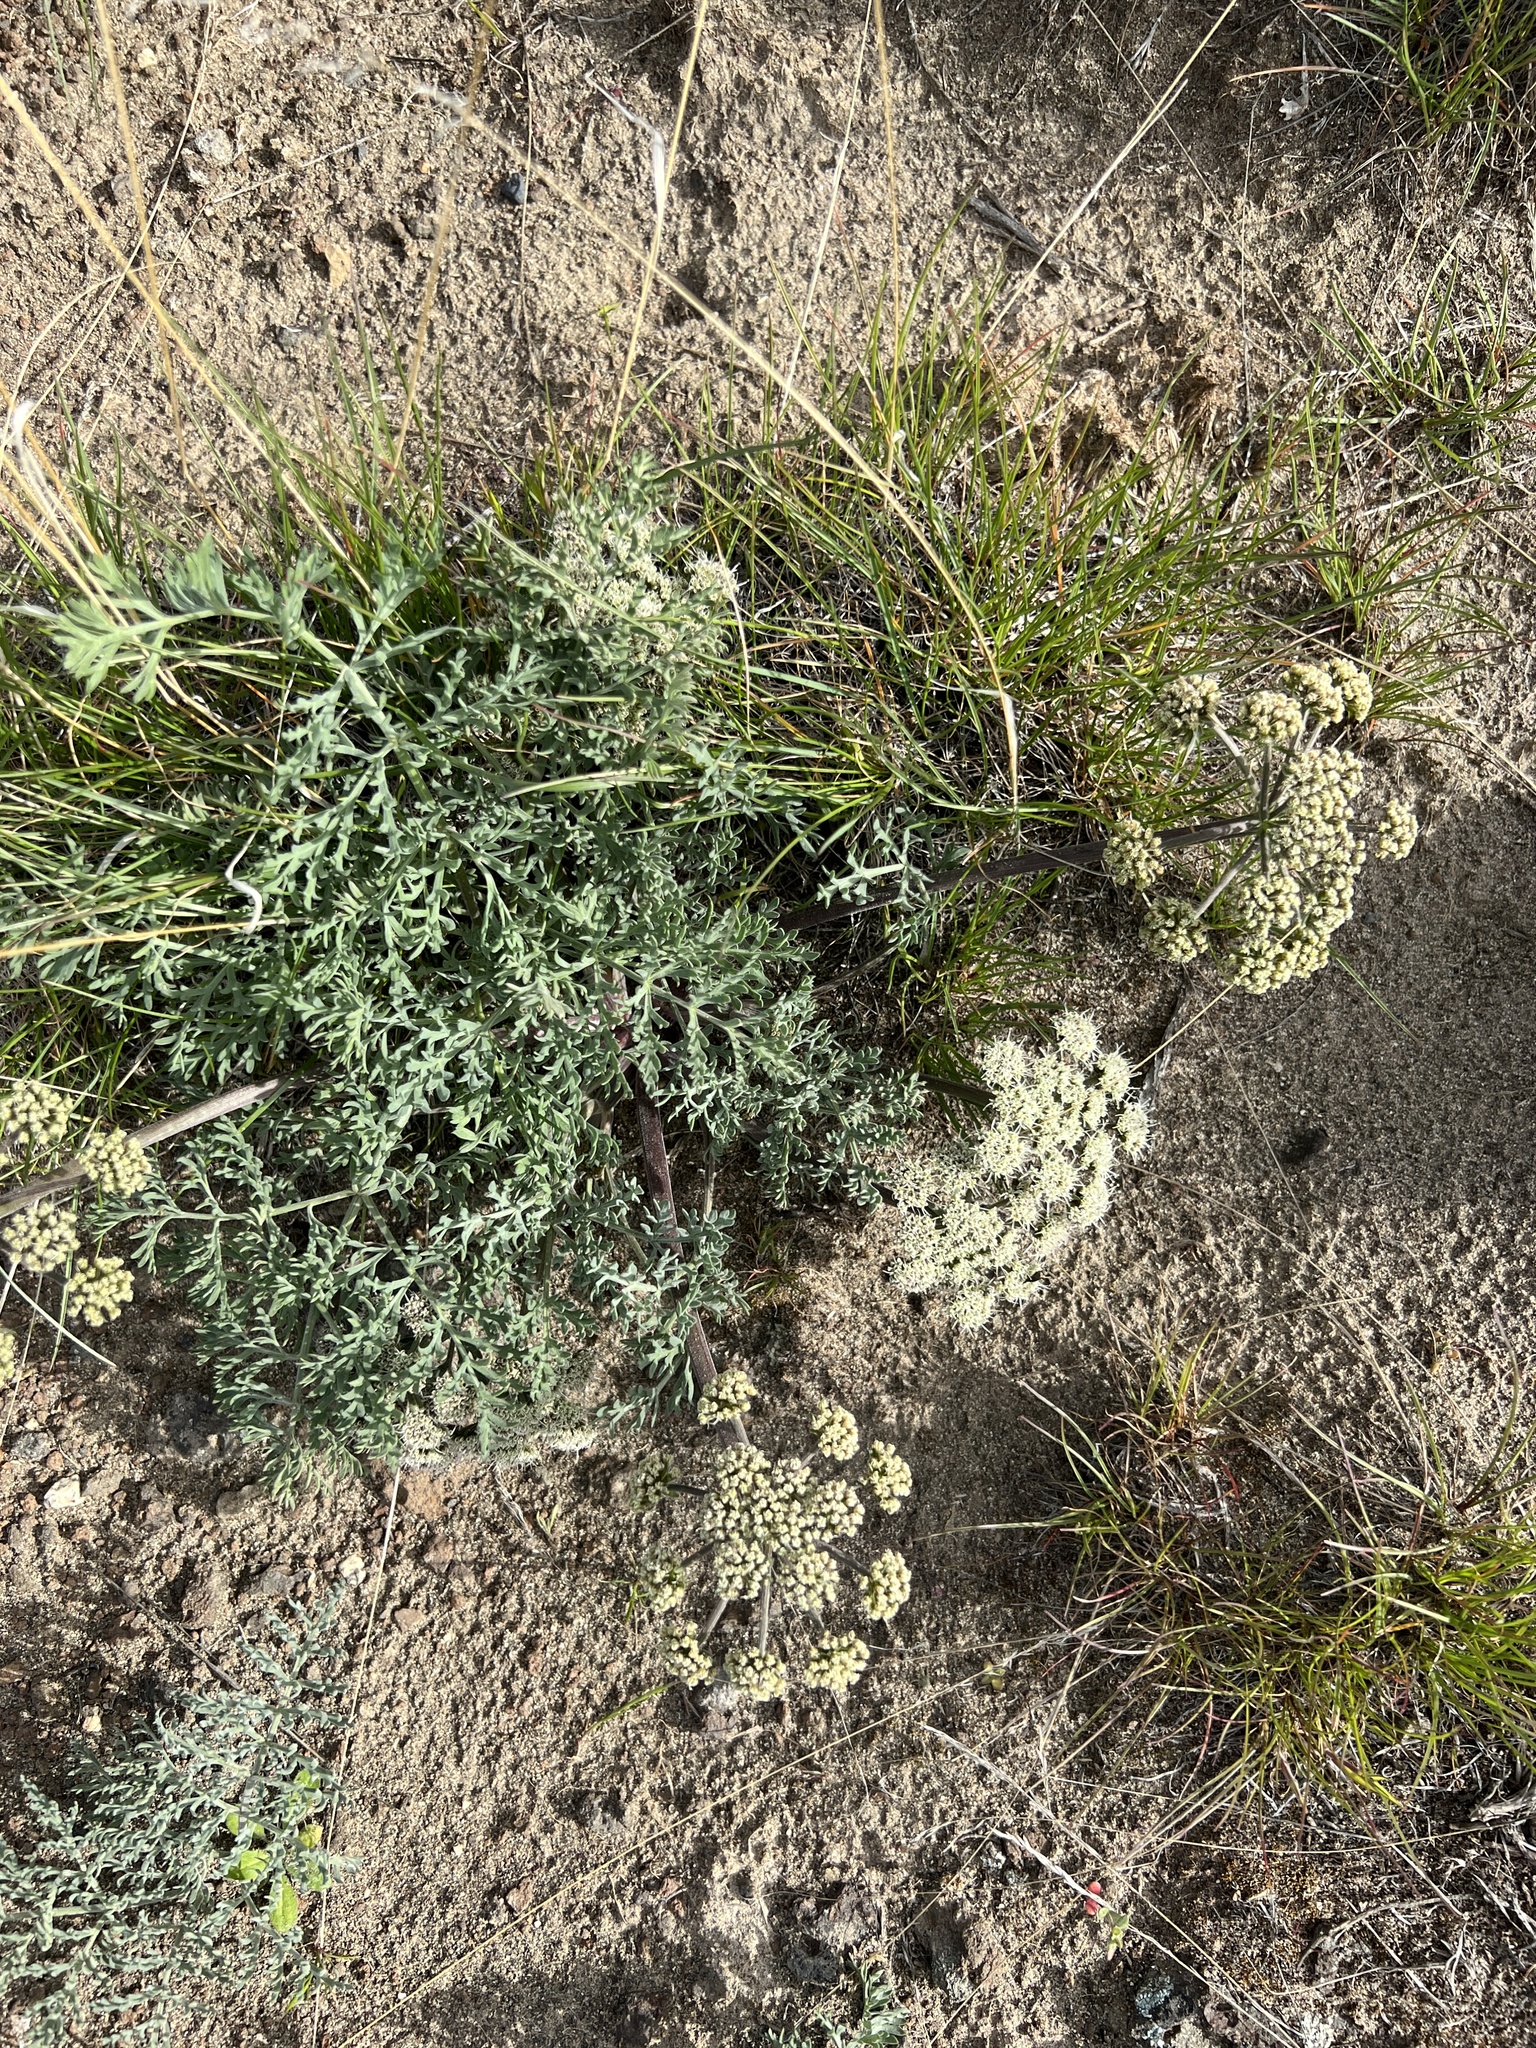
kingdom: Plantae
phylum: Tracheophyta
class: Magnoliopsida
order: Apiales
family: Apiaceae
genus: Lomatium
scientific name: Lomatium macrocarpum
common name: Big-seed biscuitroot
